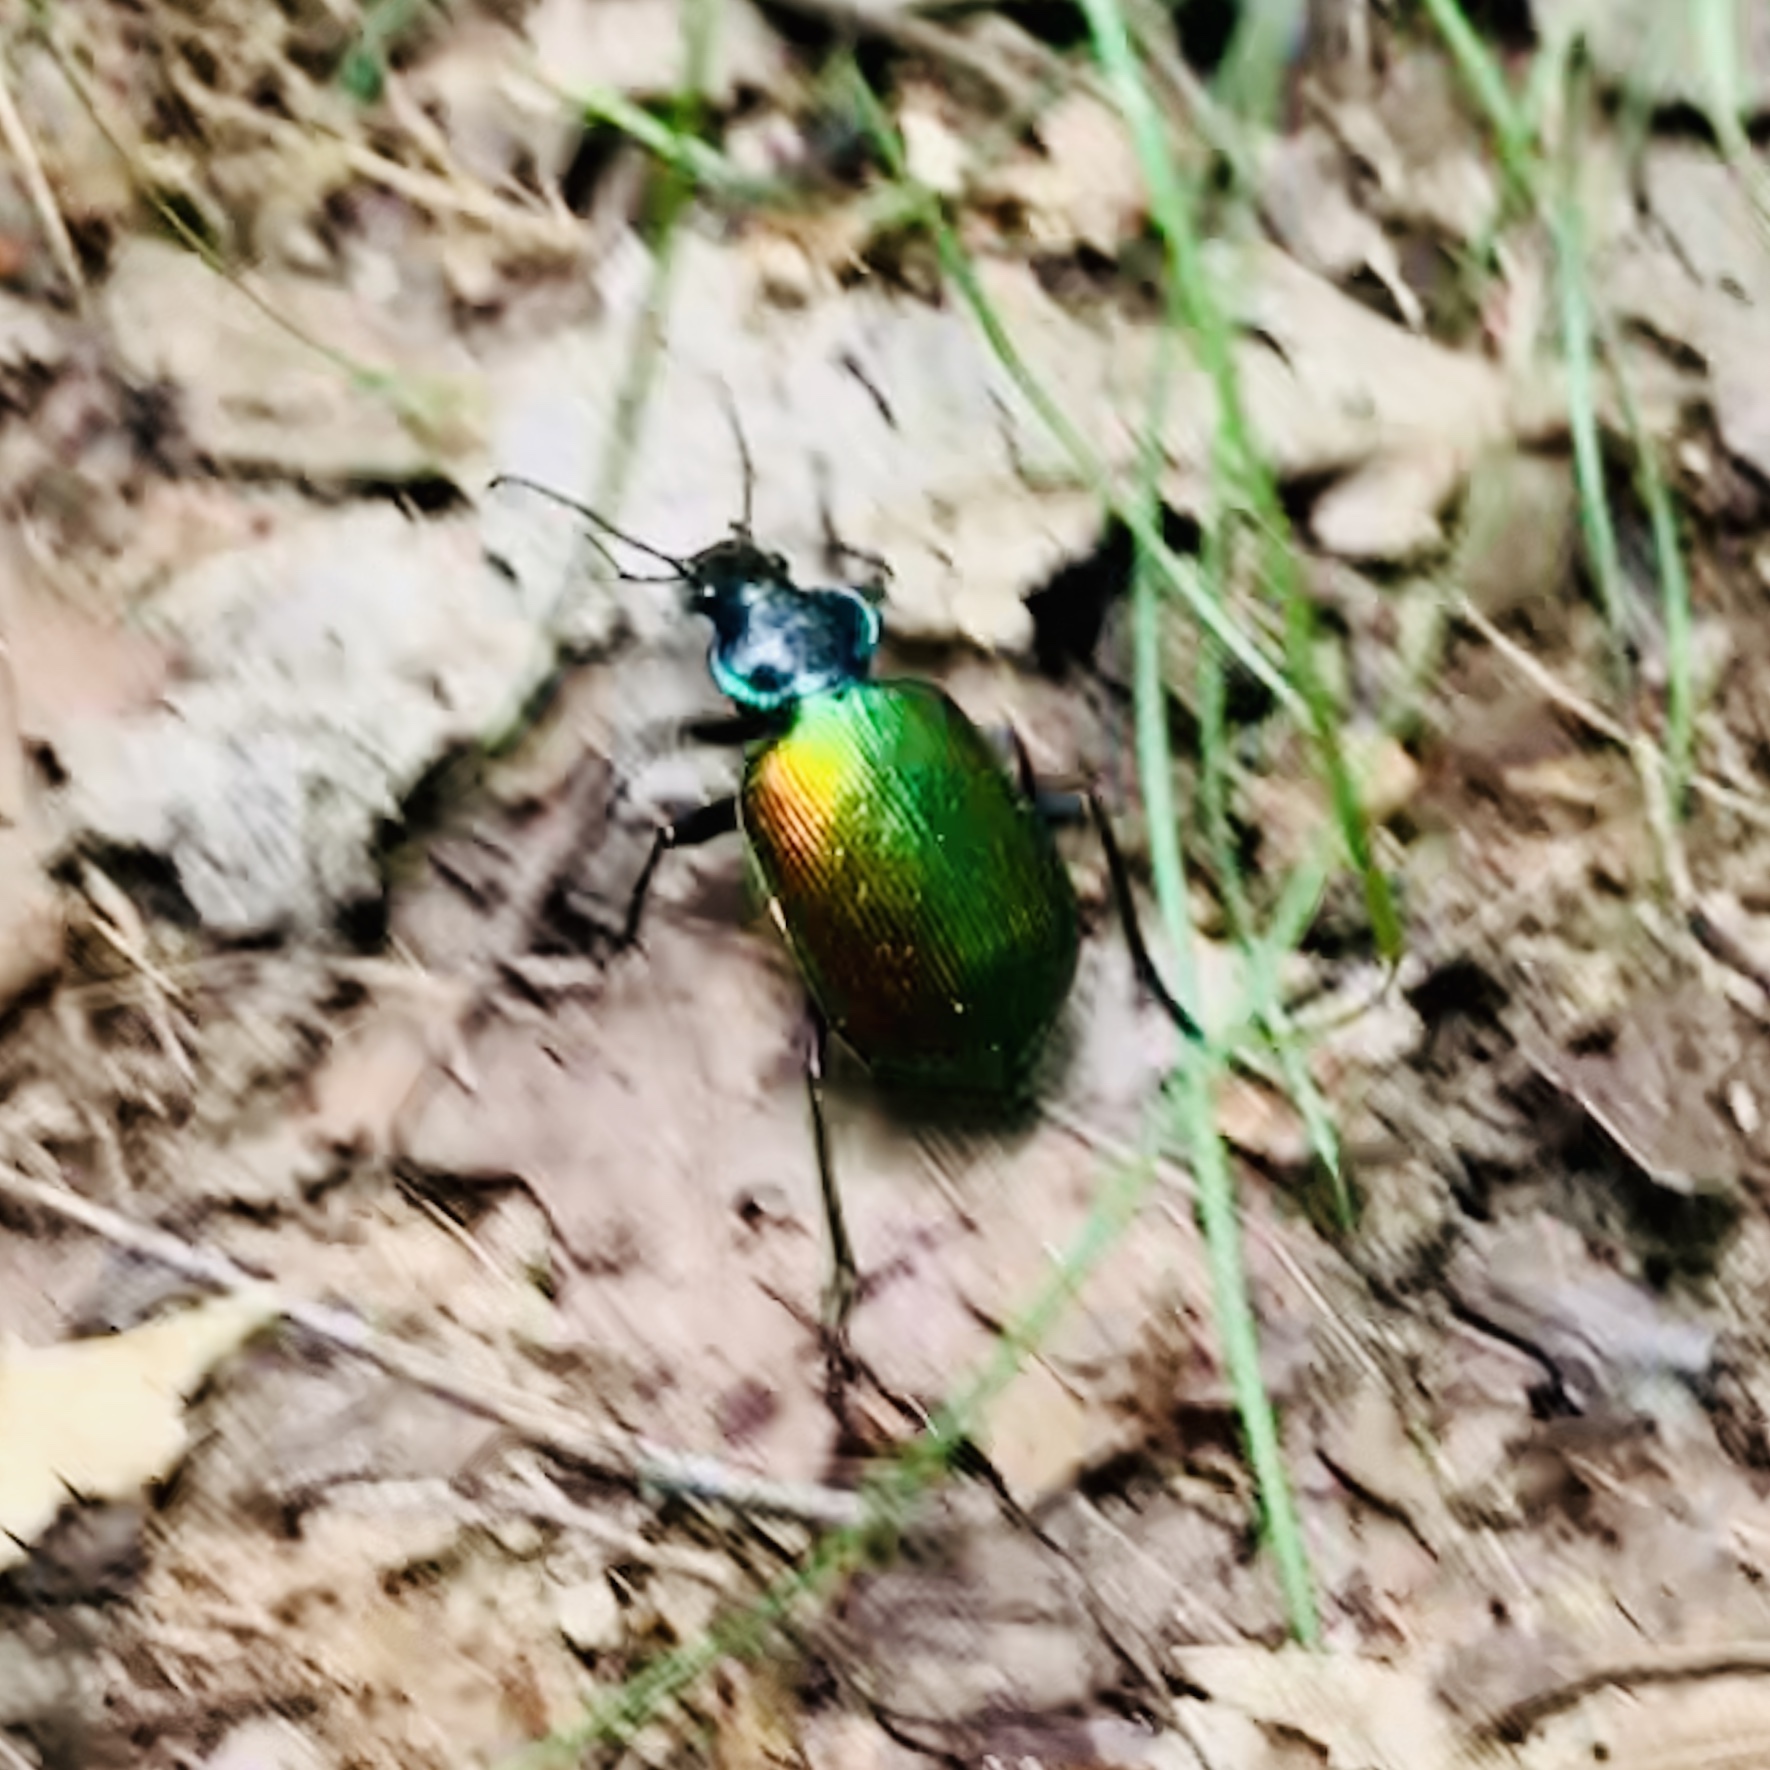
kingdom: Animalia
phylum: Arthropoda
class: Insecta
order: Coleoptera
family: Carabidae
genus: Calosoma
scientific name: Calosoma scrutator
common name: Fiery searcher beetle
